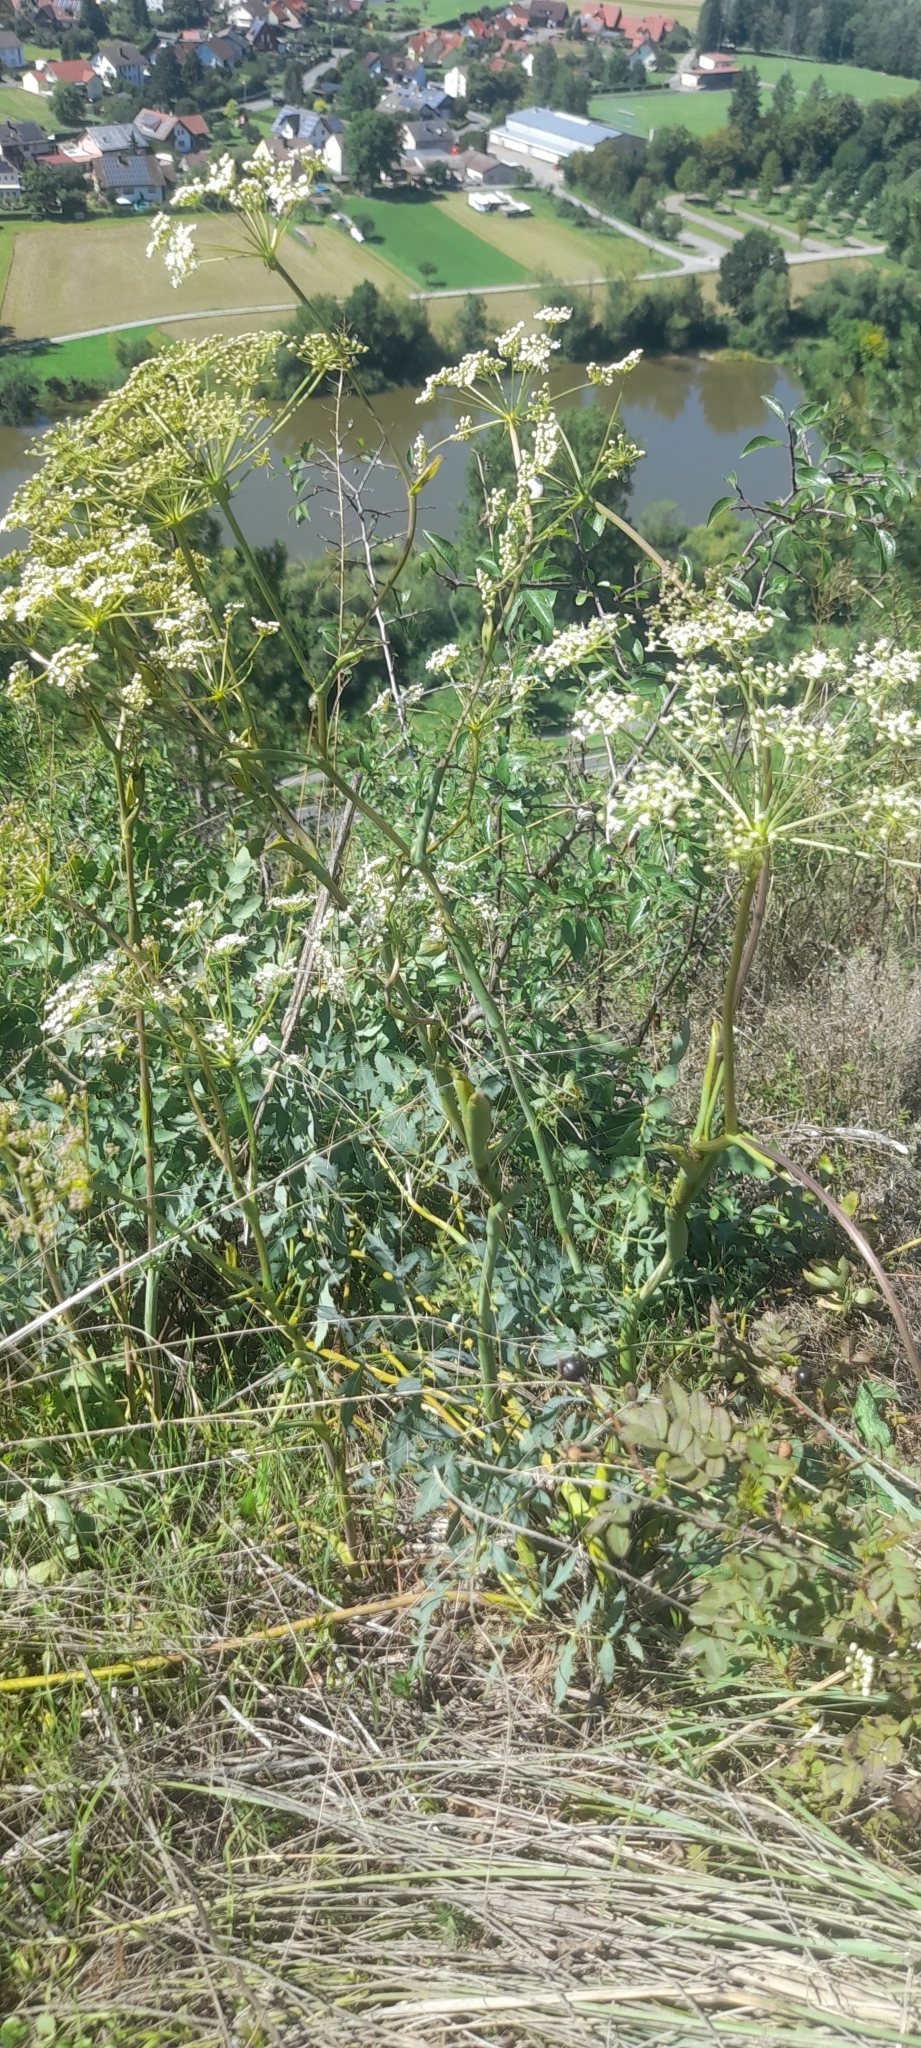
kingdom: Plantae
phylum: Tracheophyta
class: Magnoliopsida
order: Apiales
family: Apiaceae
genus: Cervaria
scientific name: Cervaria rivini
